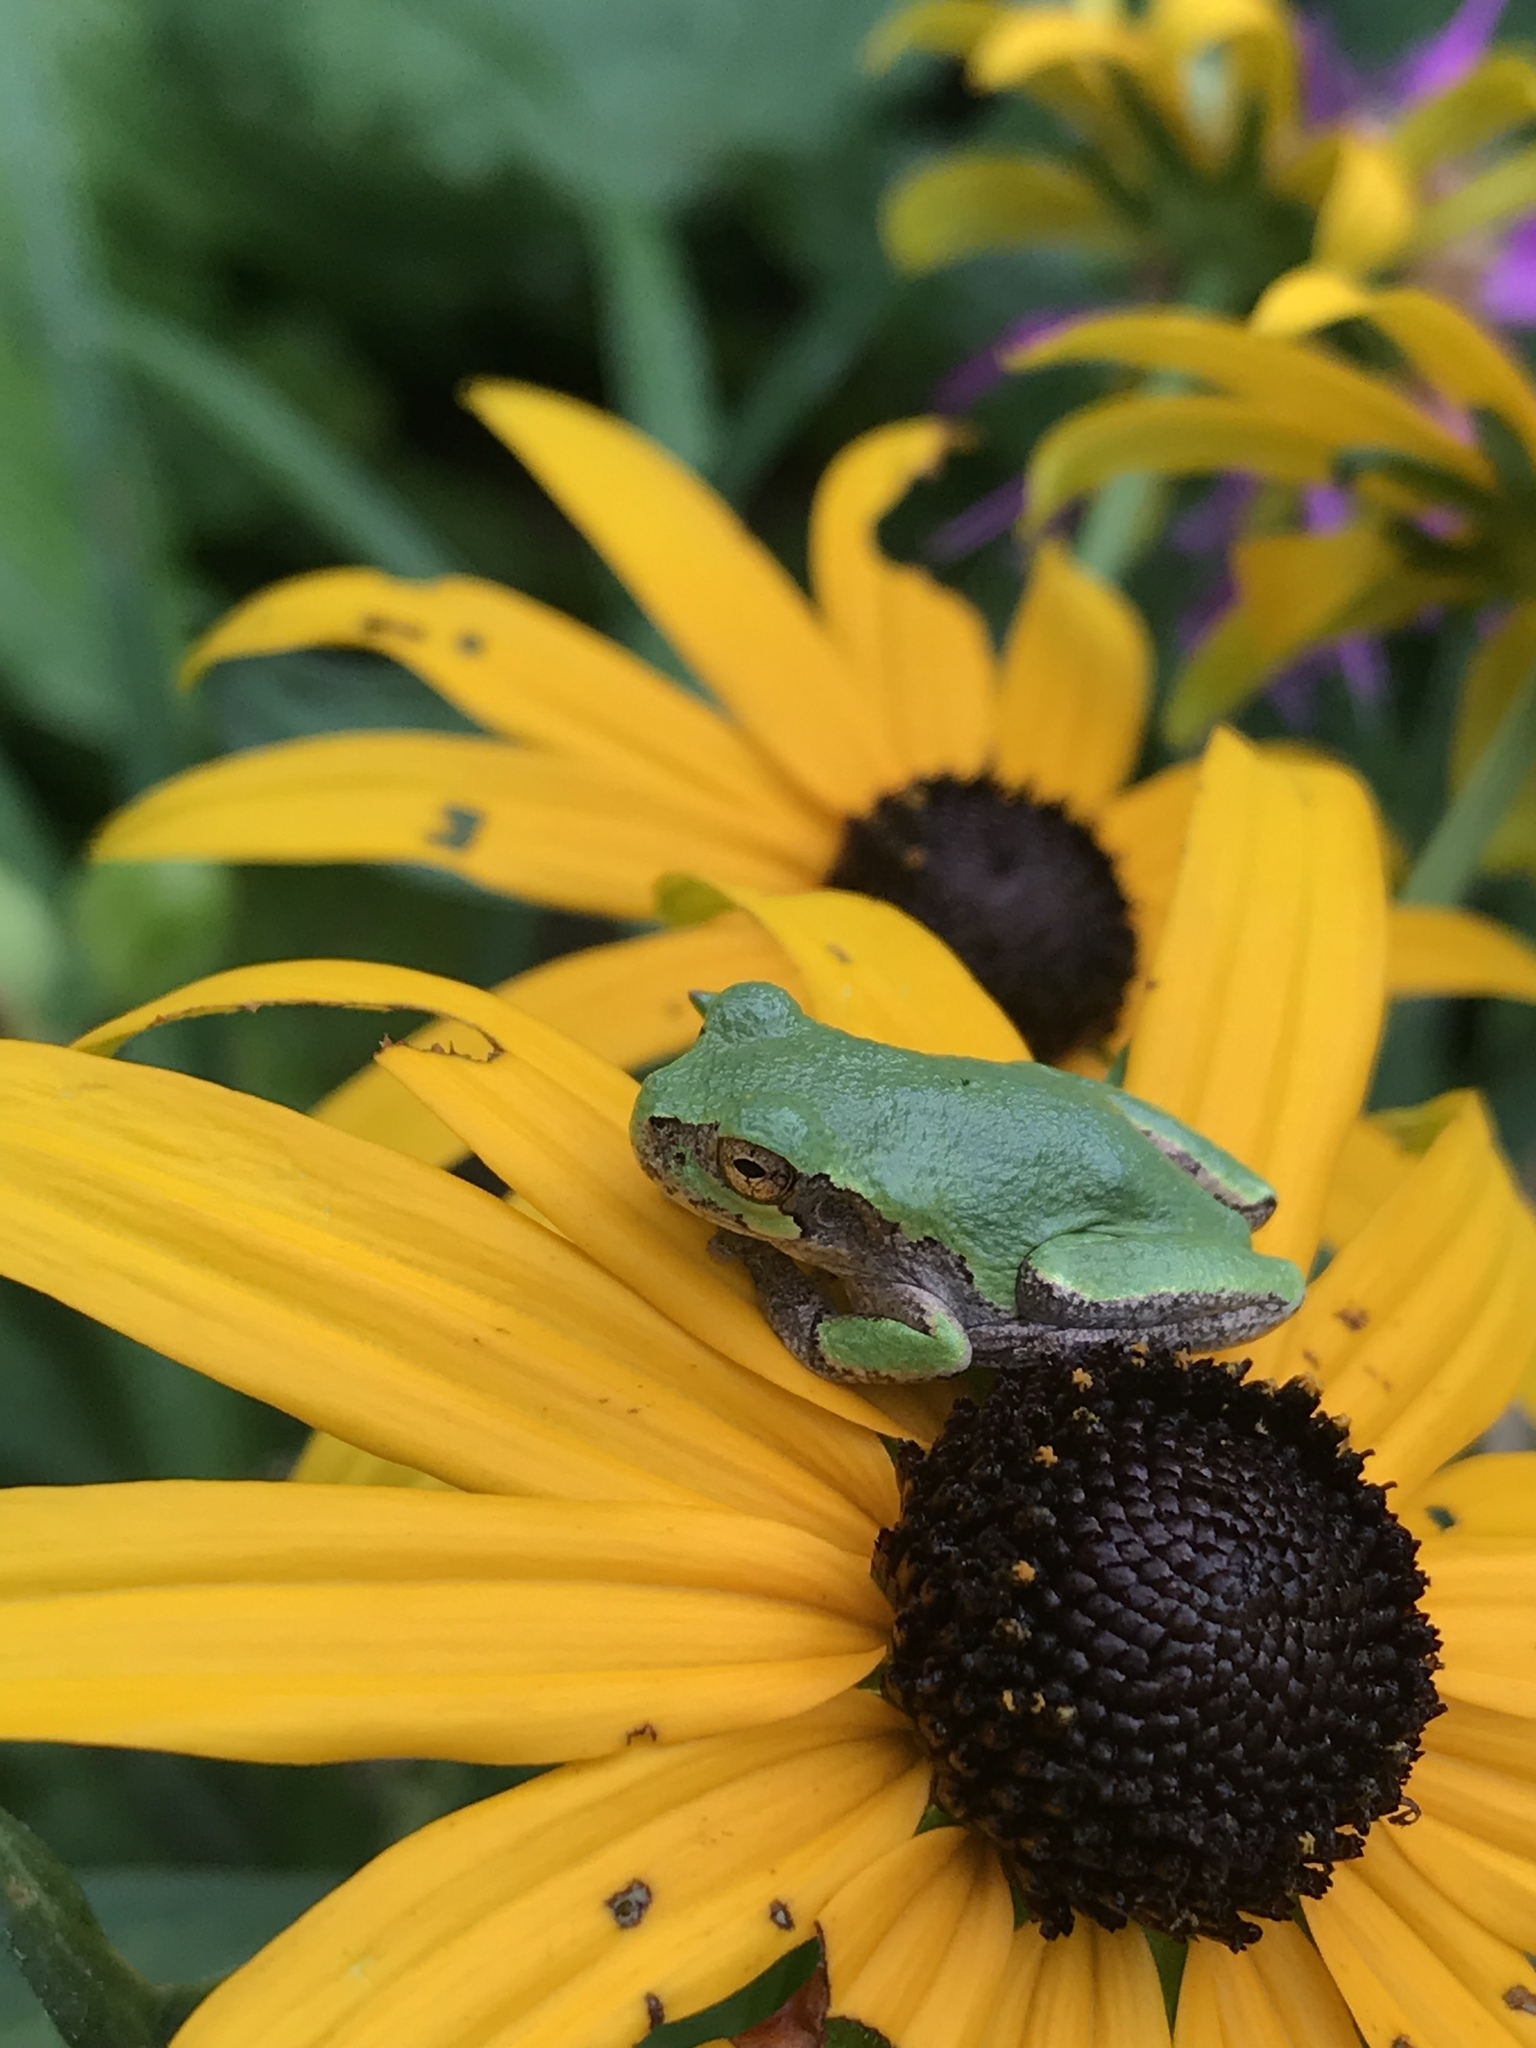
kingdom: Animalia
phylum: Chordata
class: Amphibia
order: Anura
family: Hylidae
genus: Hyla
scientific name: Hyla
